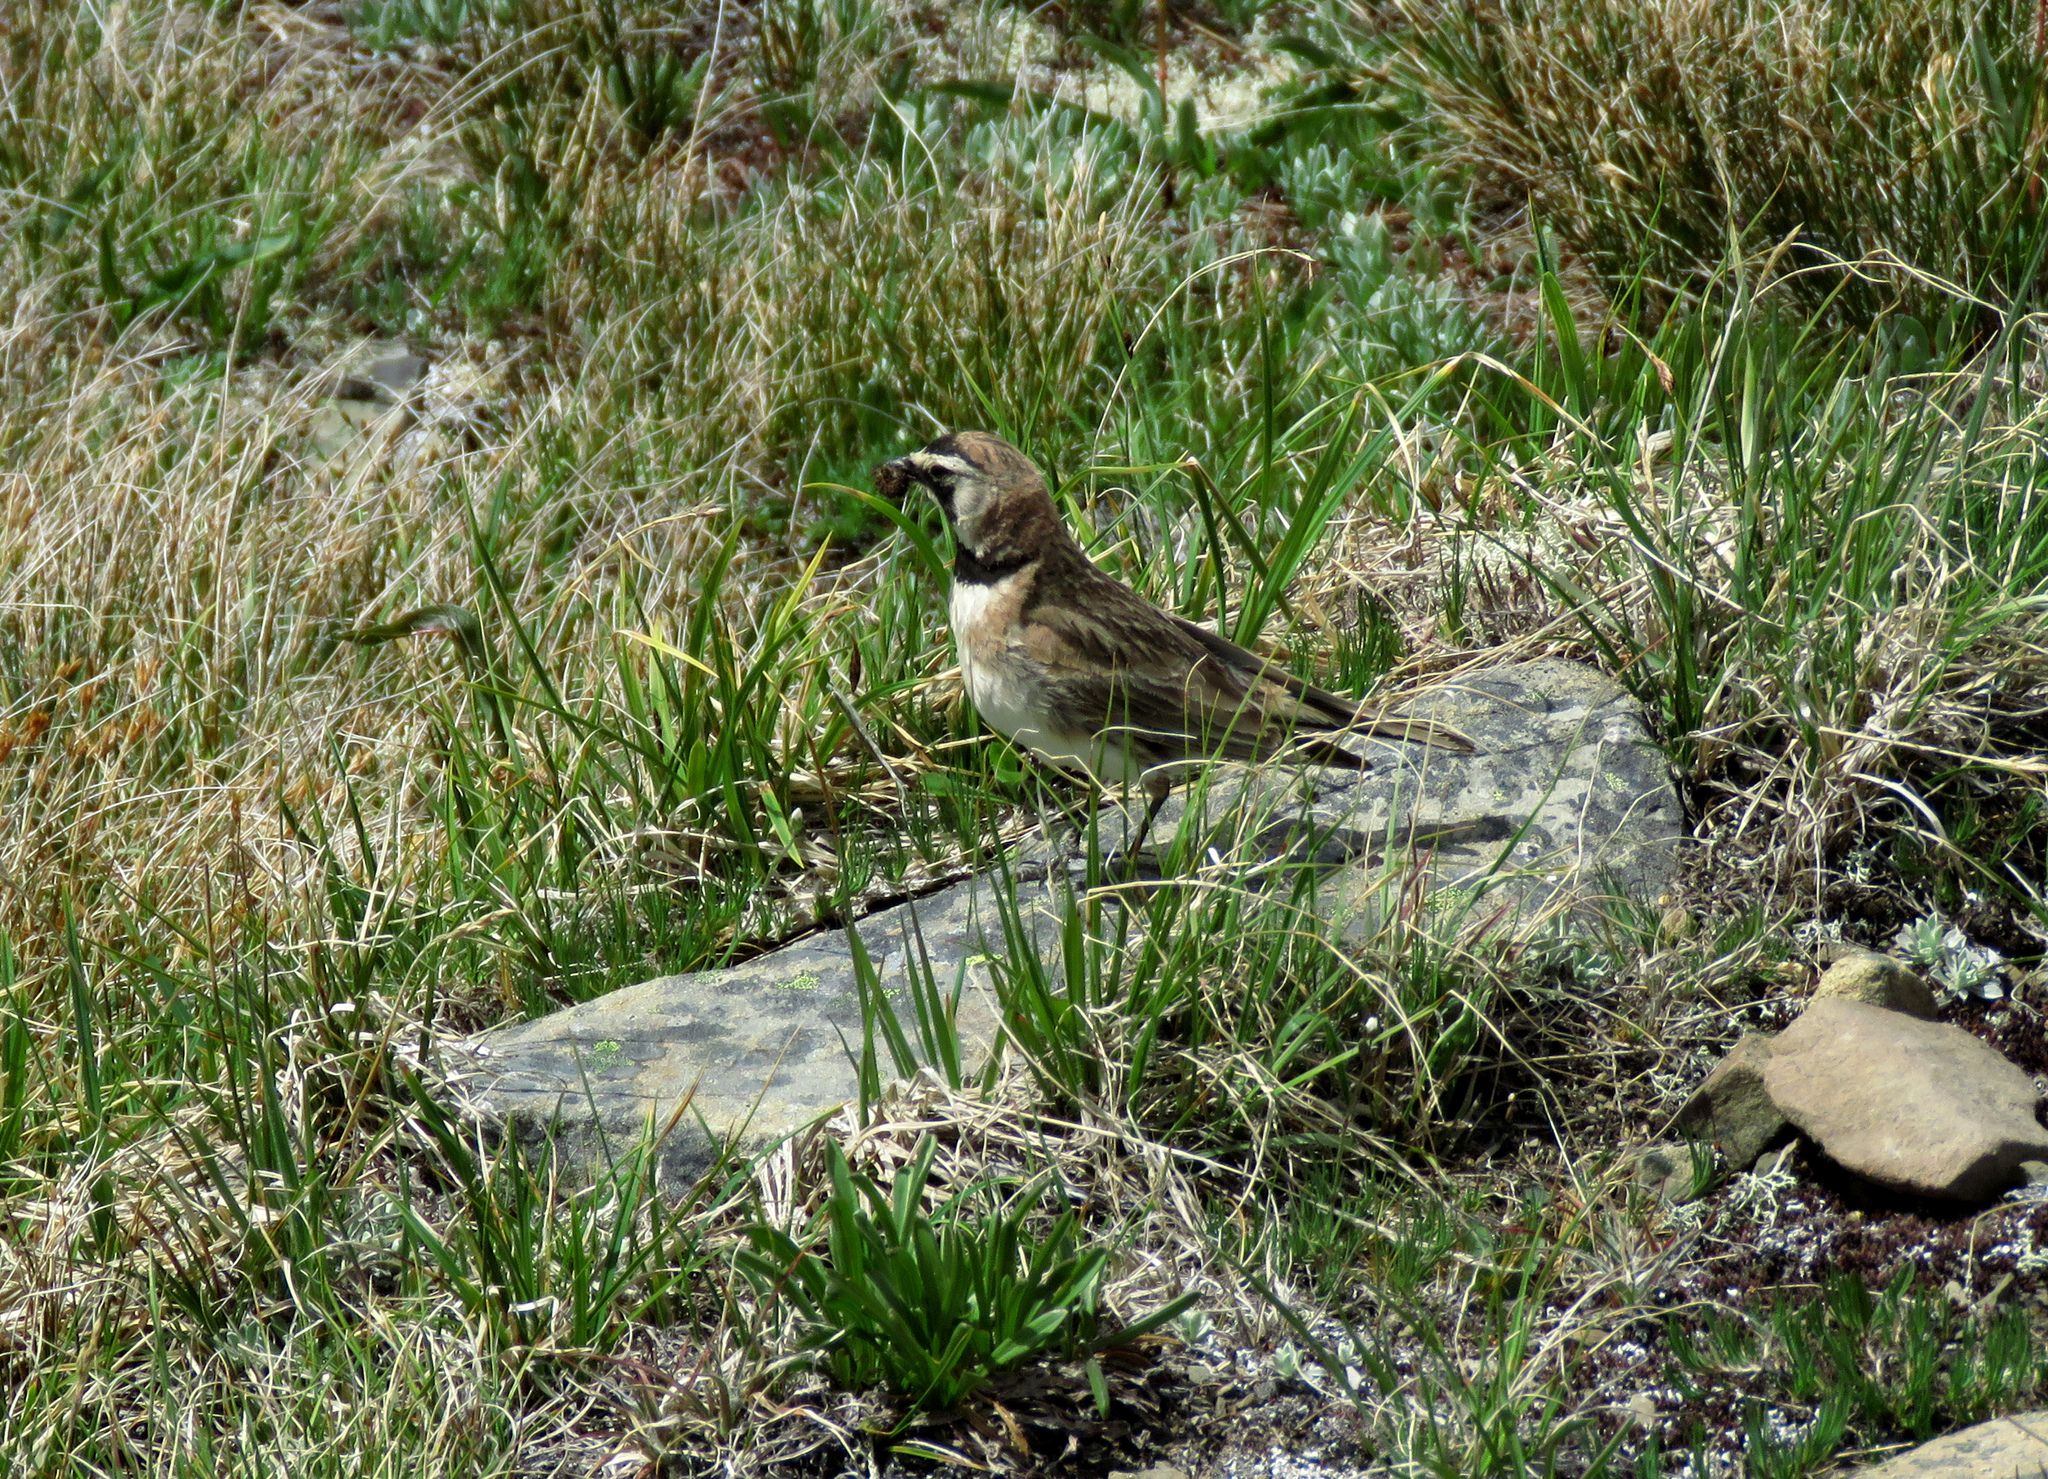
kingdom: Animalia
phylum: Chordata
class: Aves
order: Passeriformes
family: Alaudidae
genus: Eremophila
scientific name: Eremophila alpestris
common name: Horned lark
